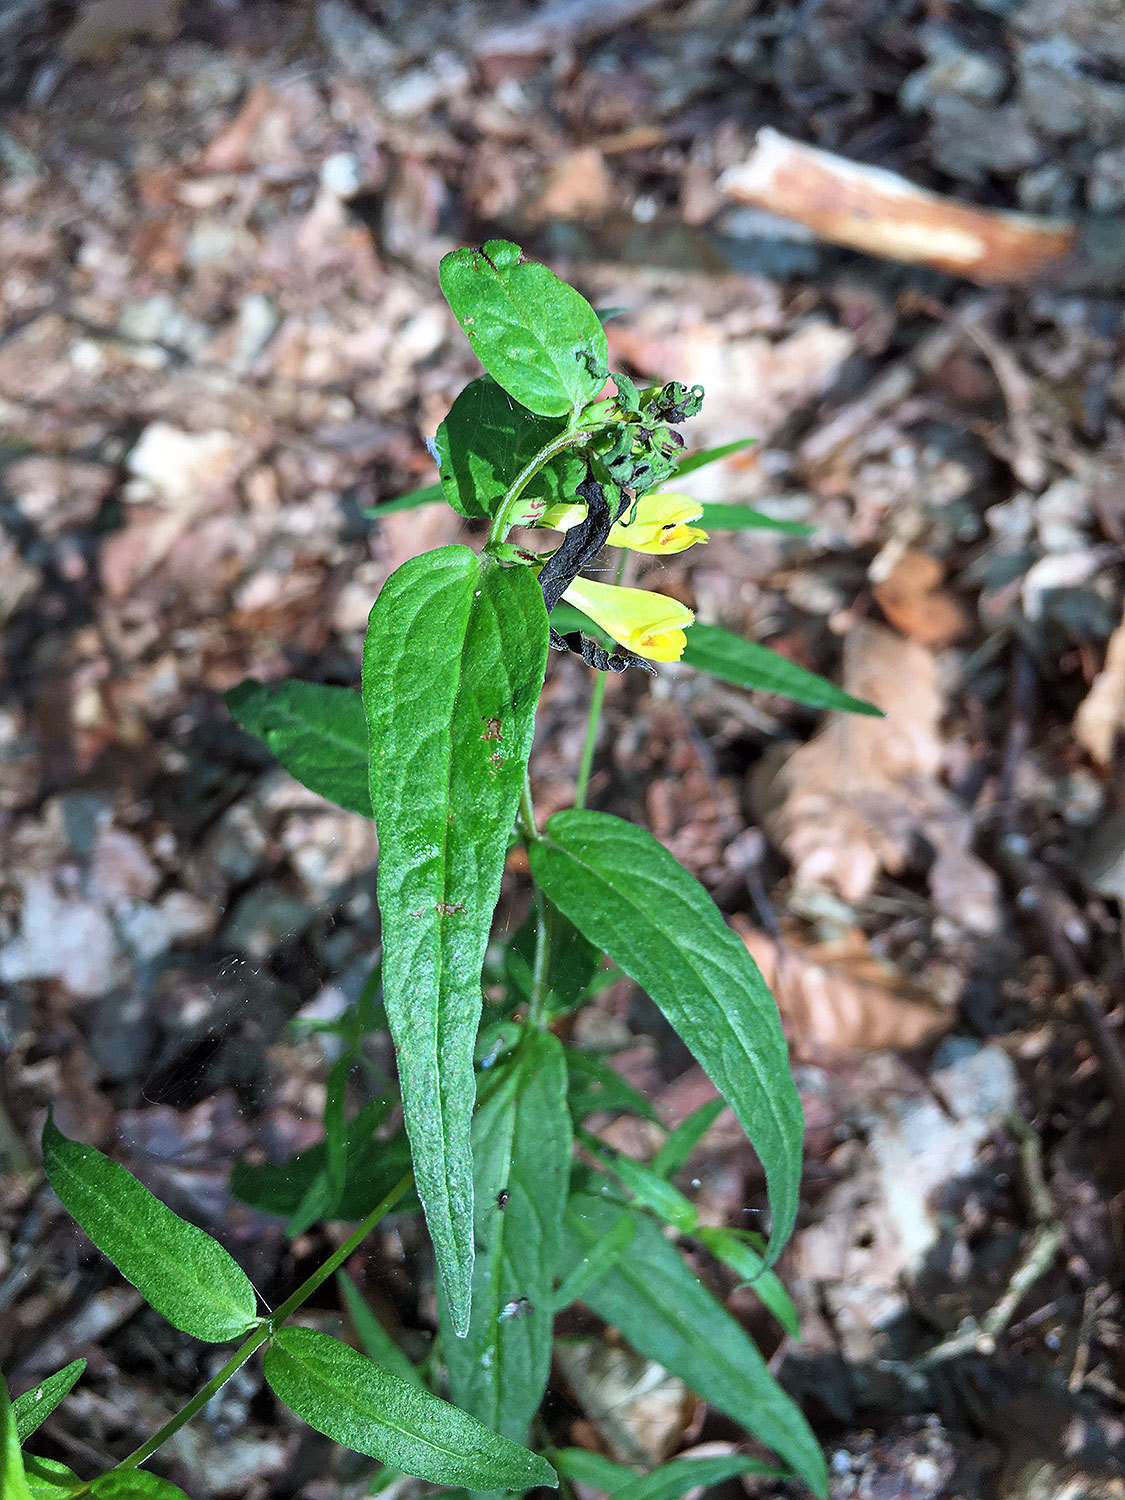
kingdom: Plantae
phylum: Tracheophyta
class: Magnoliopsida
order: Lamiales
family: Orobanchaceae
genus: Melampyrum
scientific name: Melampyrum pratense
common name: Common cow-wheat
